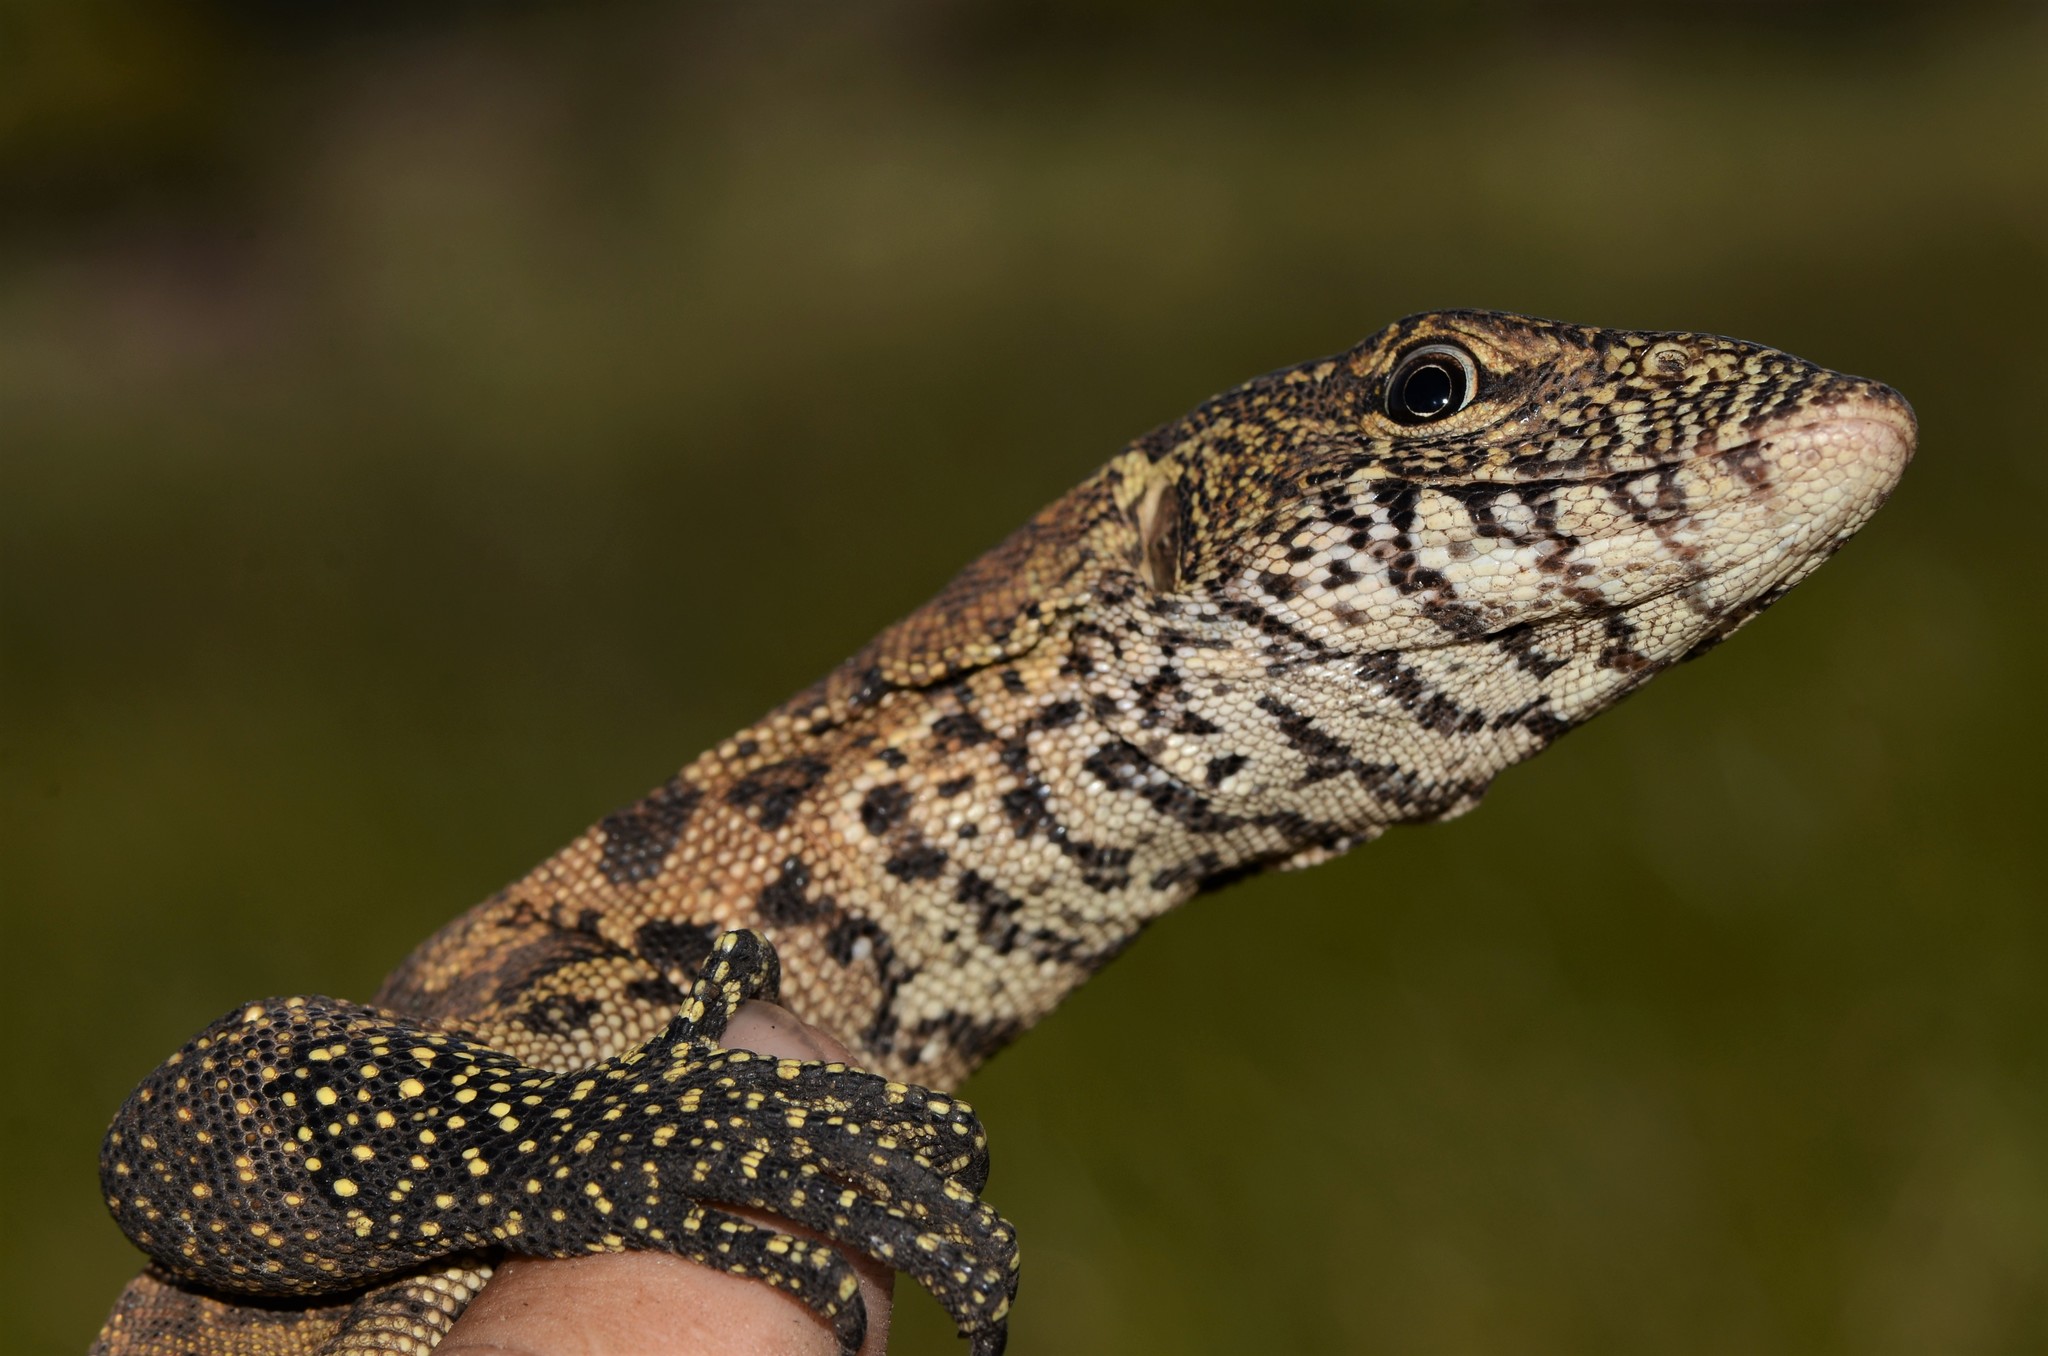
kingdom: Animalia
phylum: Chordata
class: Squamata
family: Varanidae
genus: Varanus
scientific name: Varanus niloticus
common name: Nile monitor
